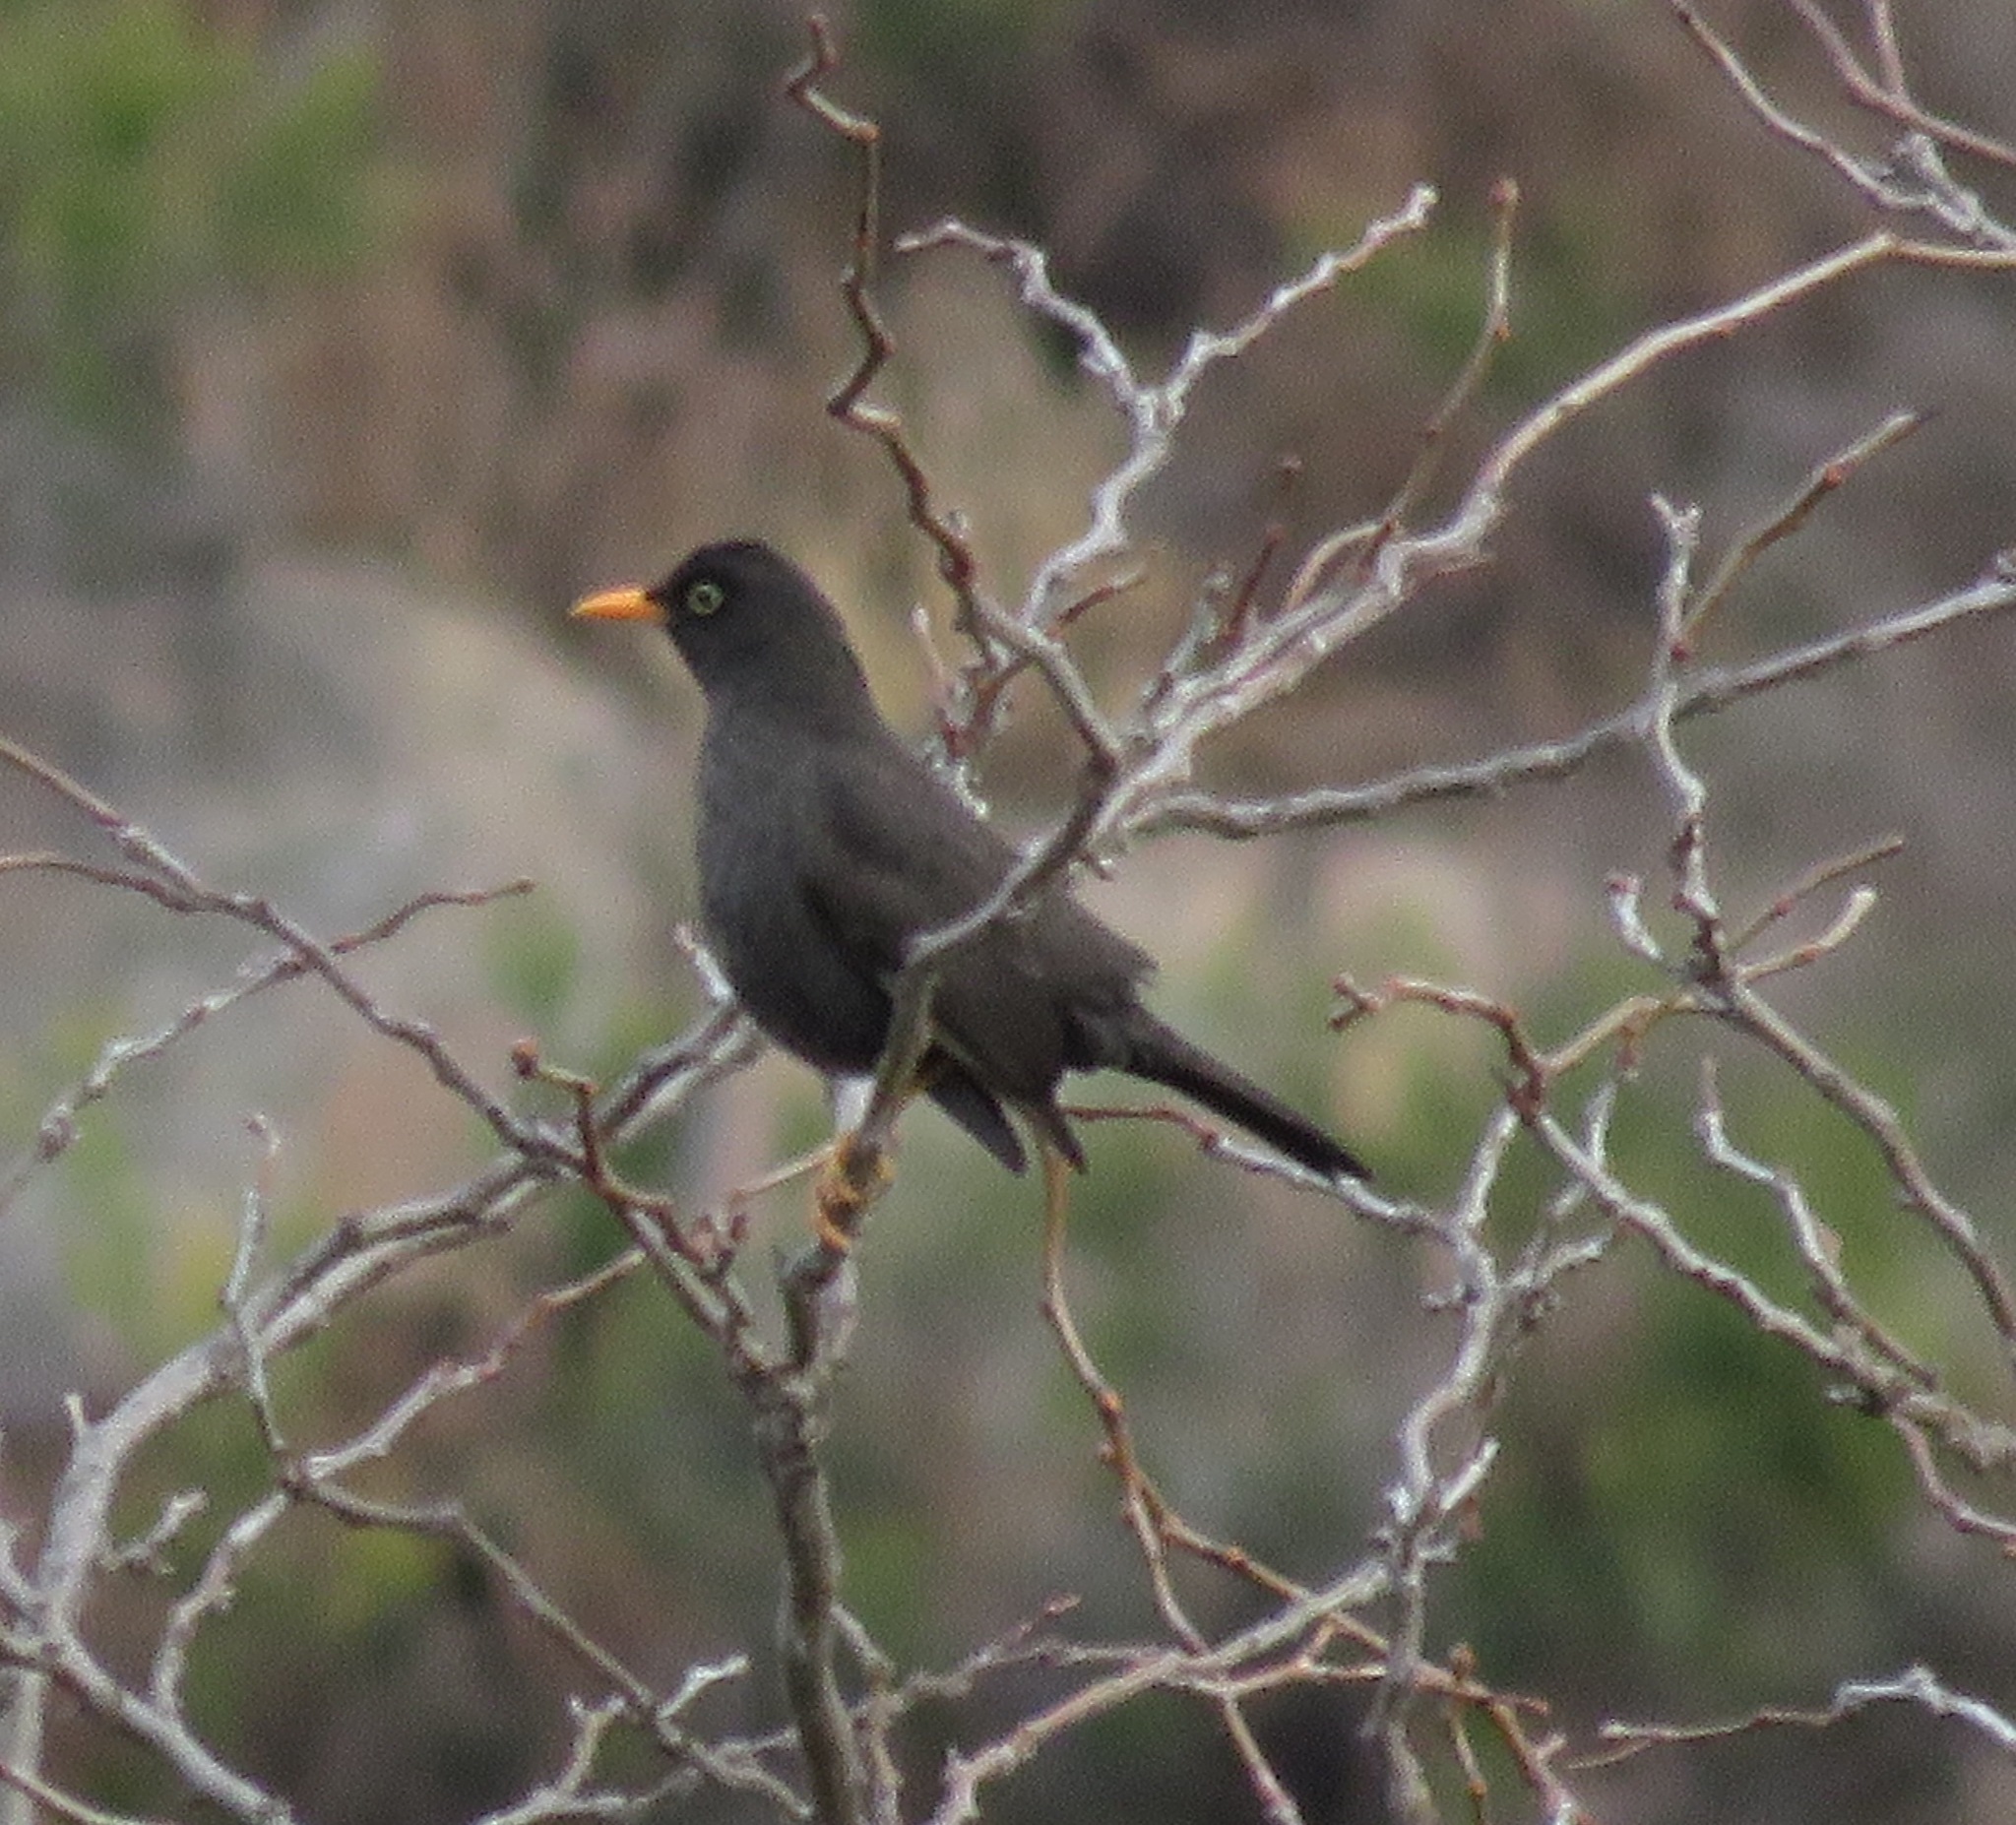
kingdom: Animalia
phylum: Chordata
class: Aves
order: Passeriformes
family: Turdidae
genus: Turdus
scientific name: Turdus chiguanco
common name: Chiguanco thrush
